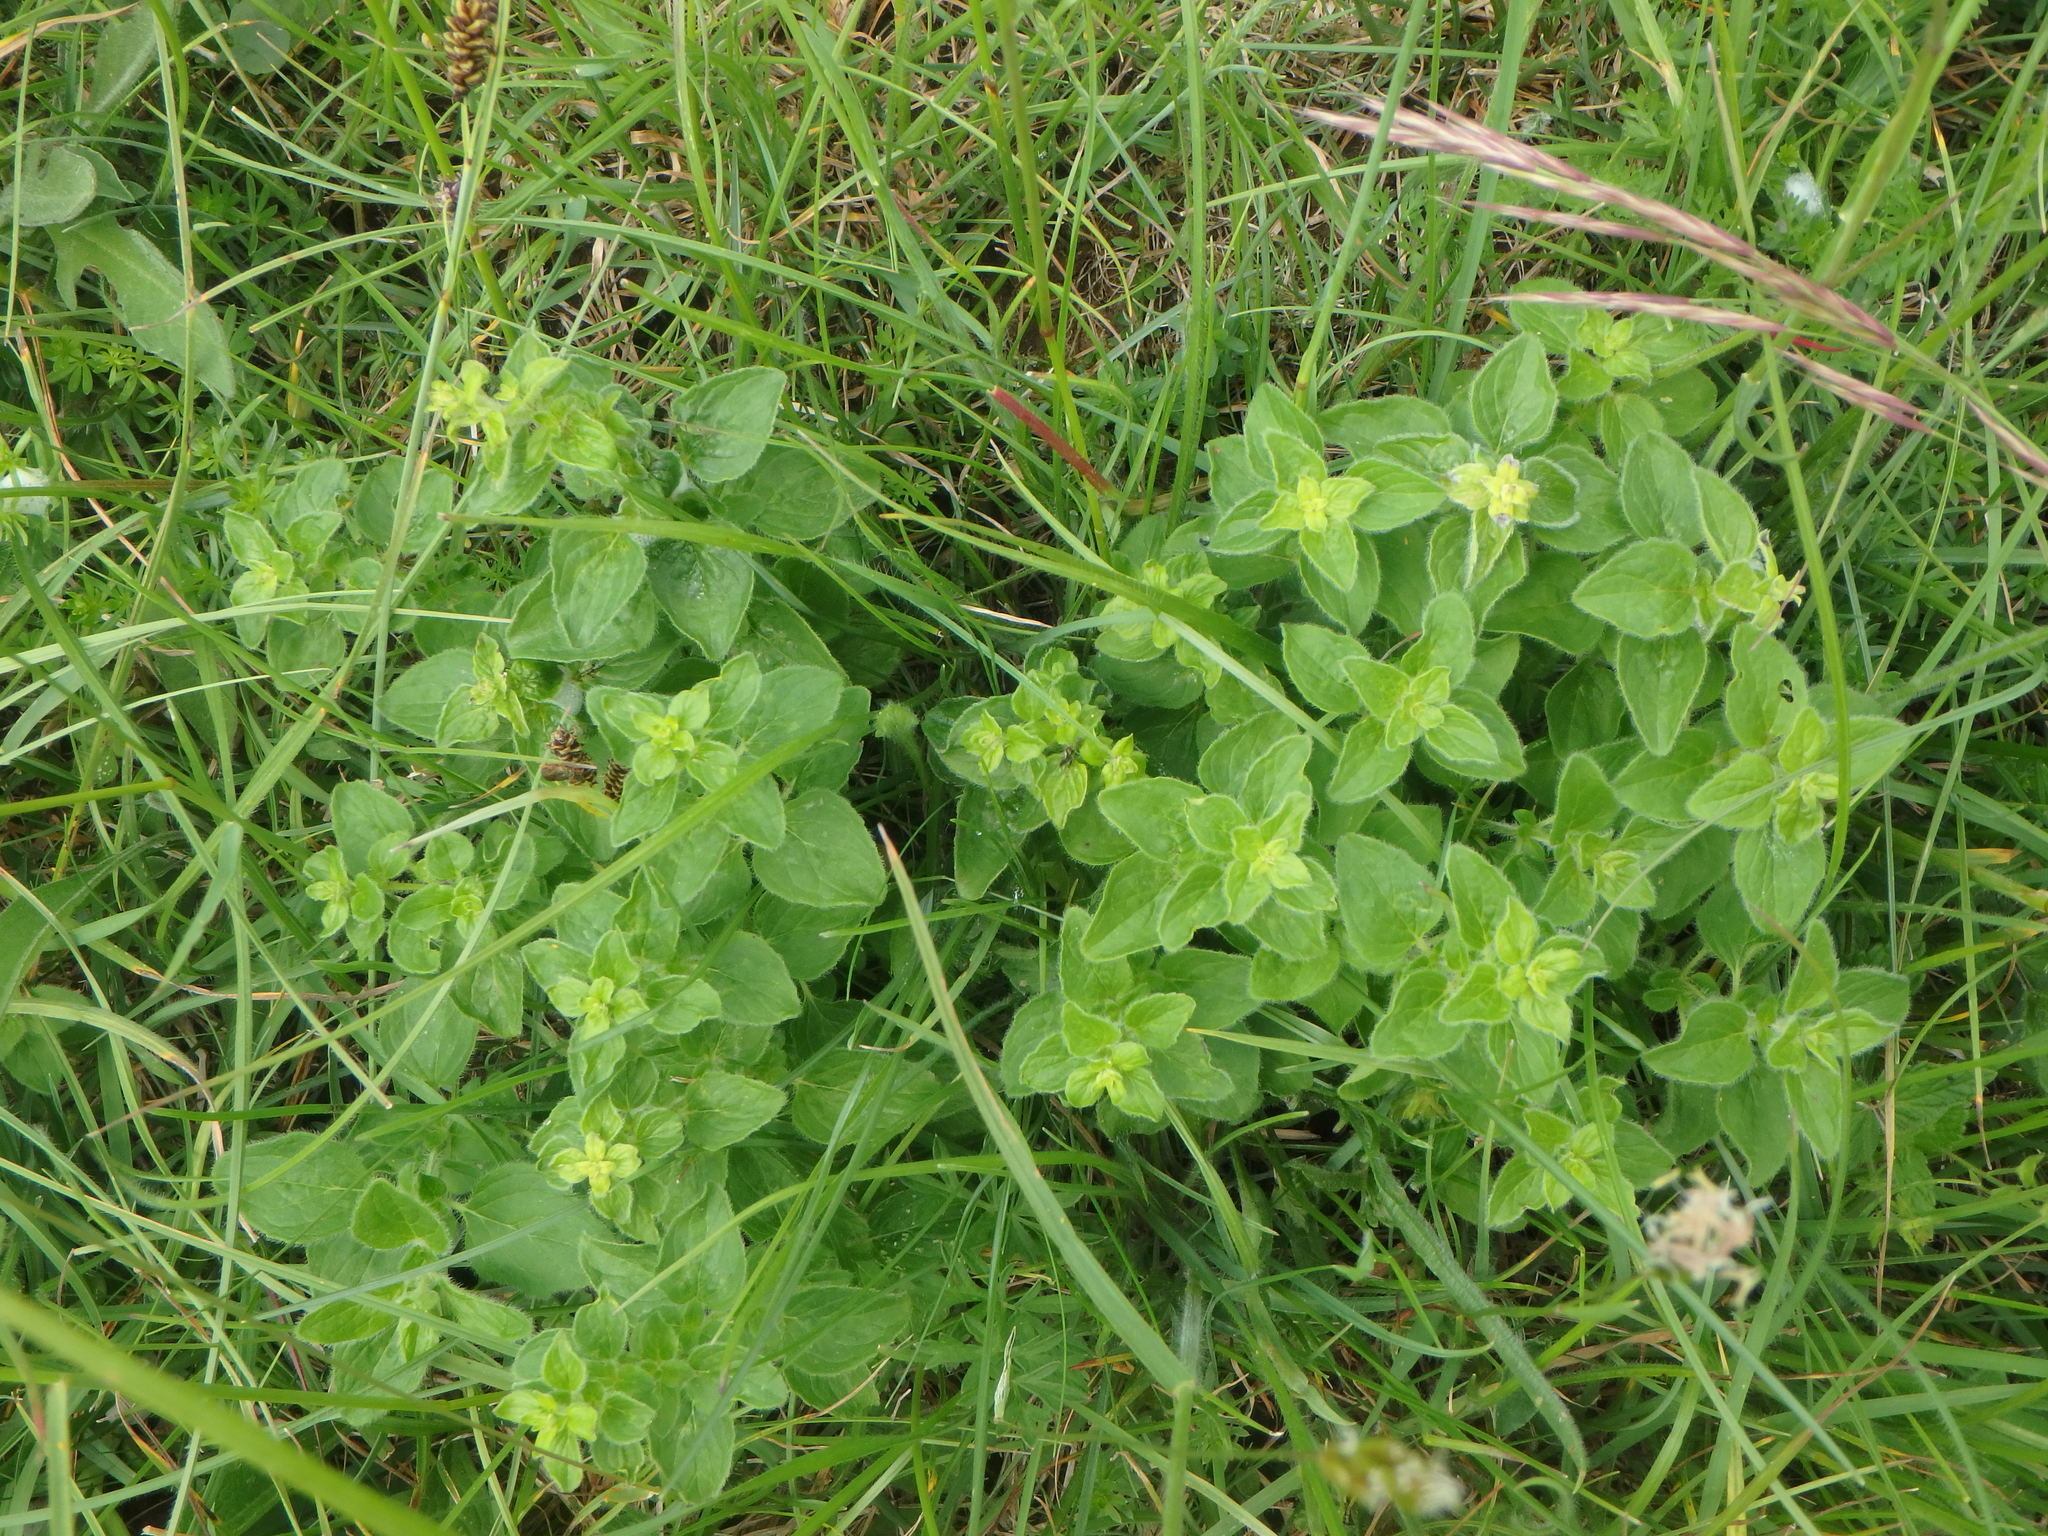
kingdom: Plantae
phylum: Tracheophyta
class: Magnoliopsida
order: Lamiales
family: Lamiaceae
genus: Origanum
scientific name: Origanum vulgare
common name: Wild marjoram
